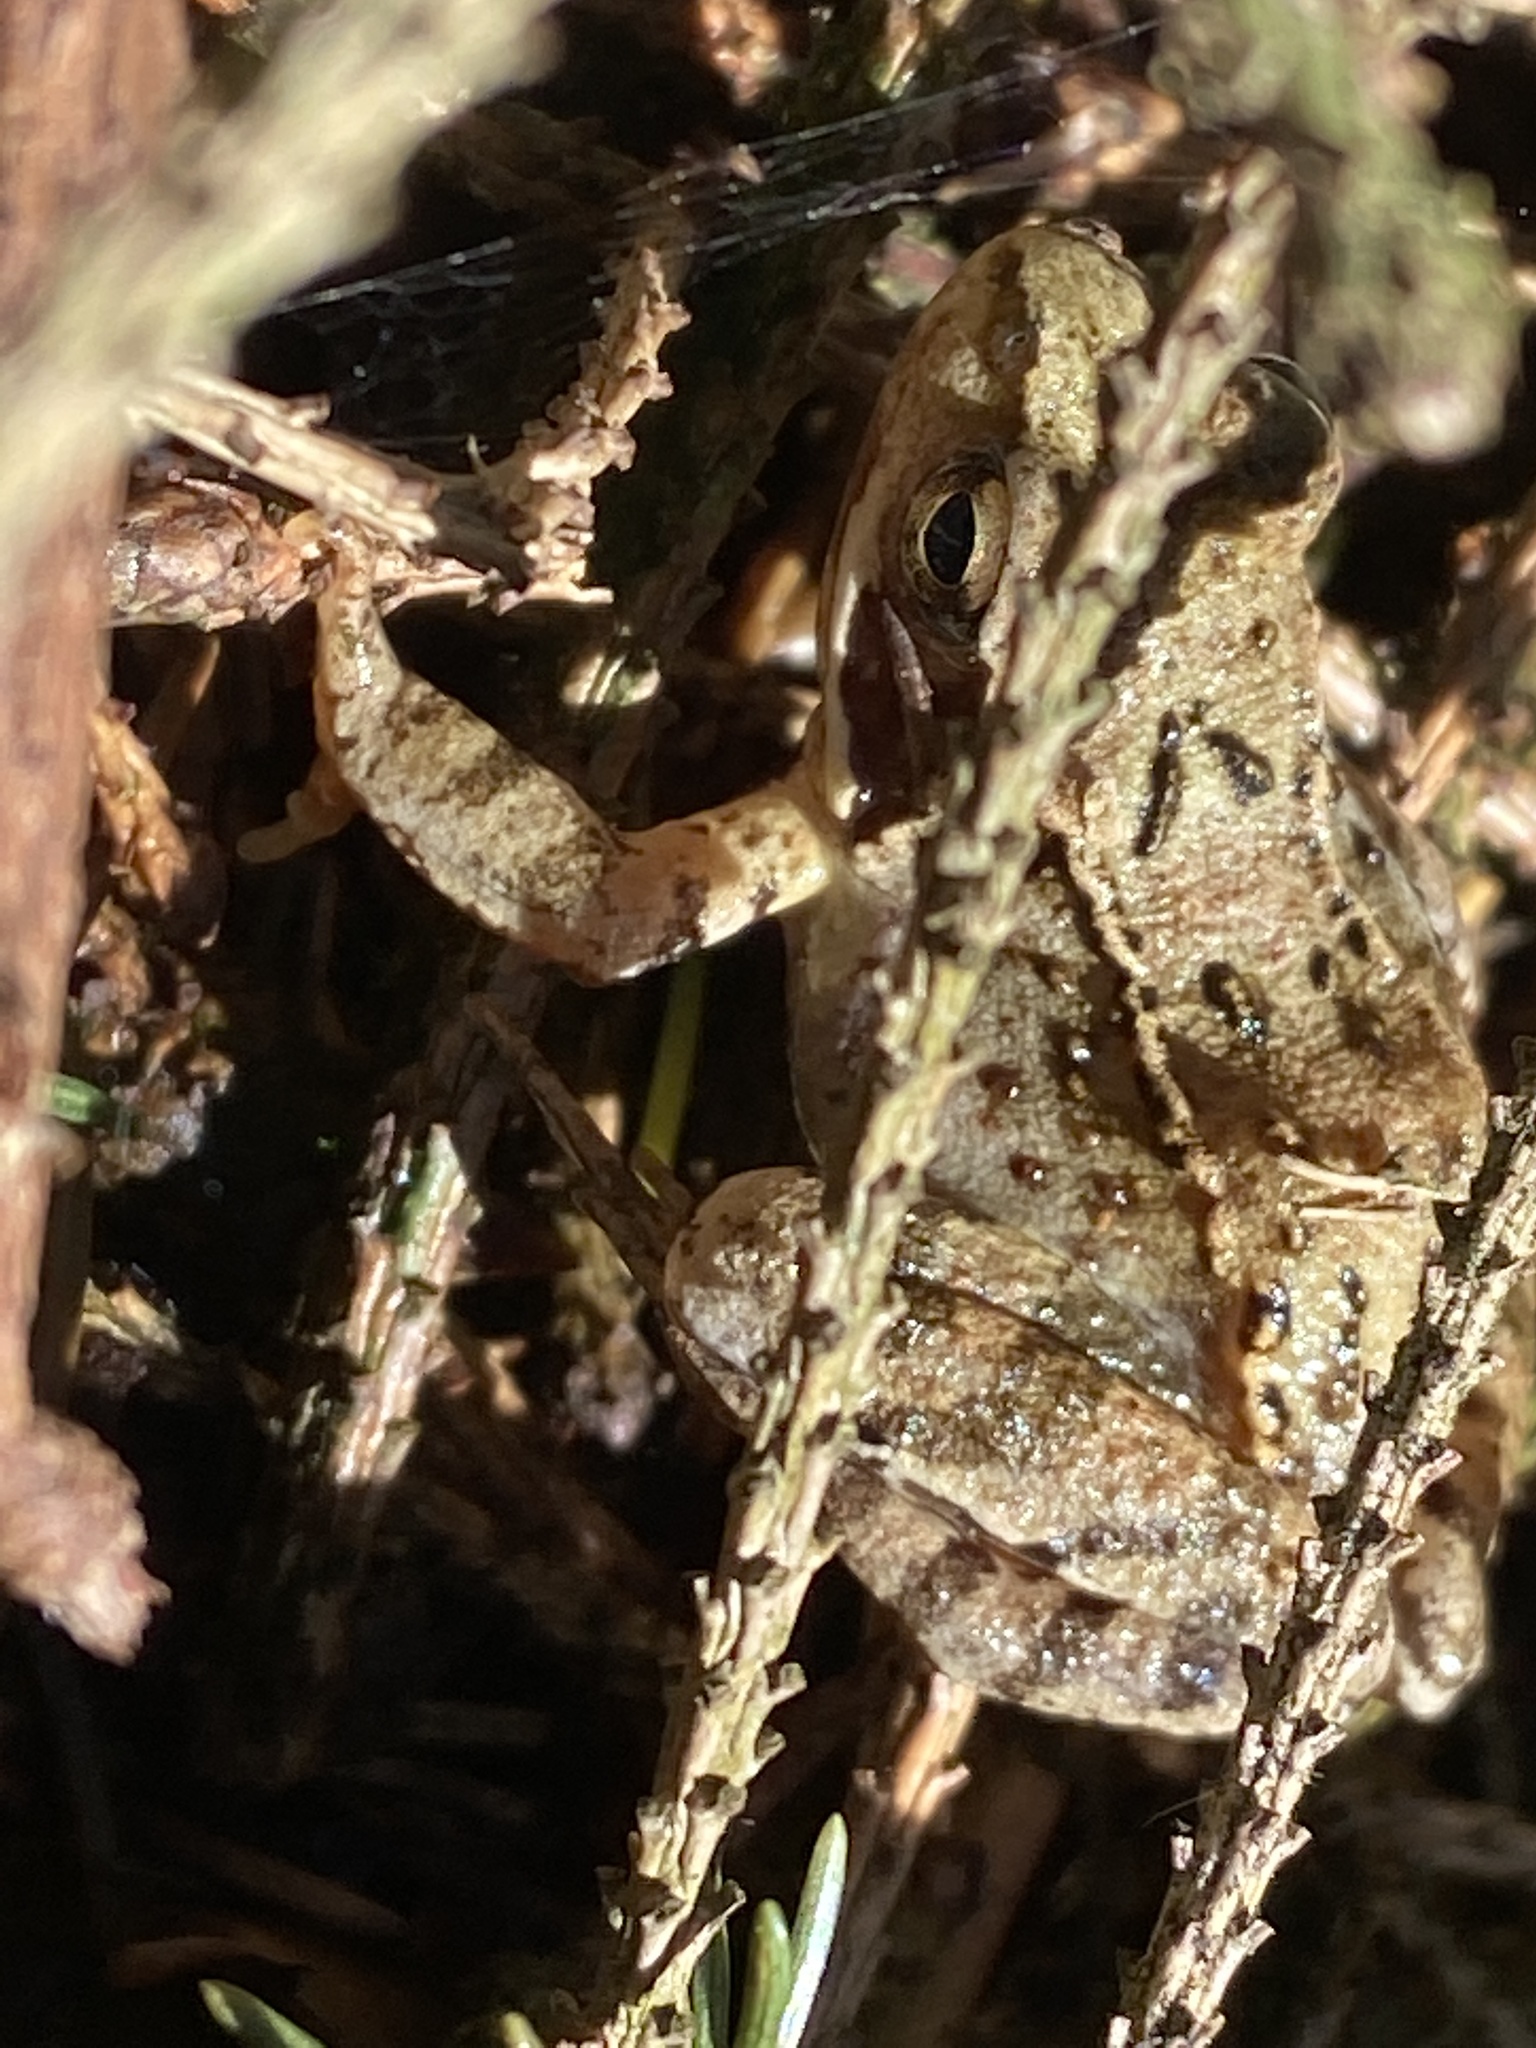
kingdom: Animalia
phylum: Chordata
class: Amphibia
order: Anura
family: Ranidae
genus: Rana
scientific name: Rana temporaria
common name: Common frog
